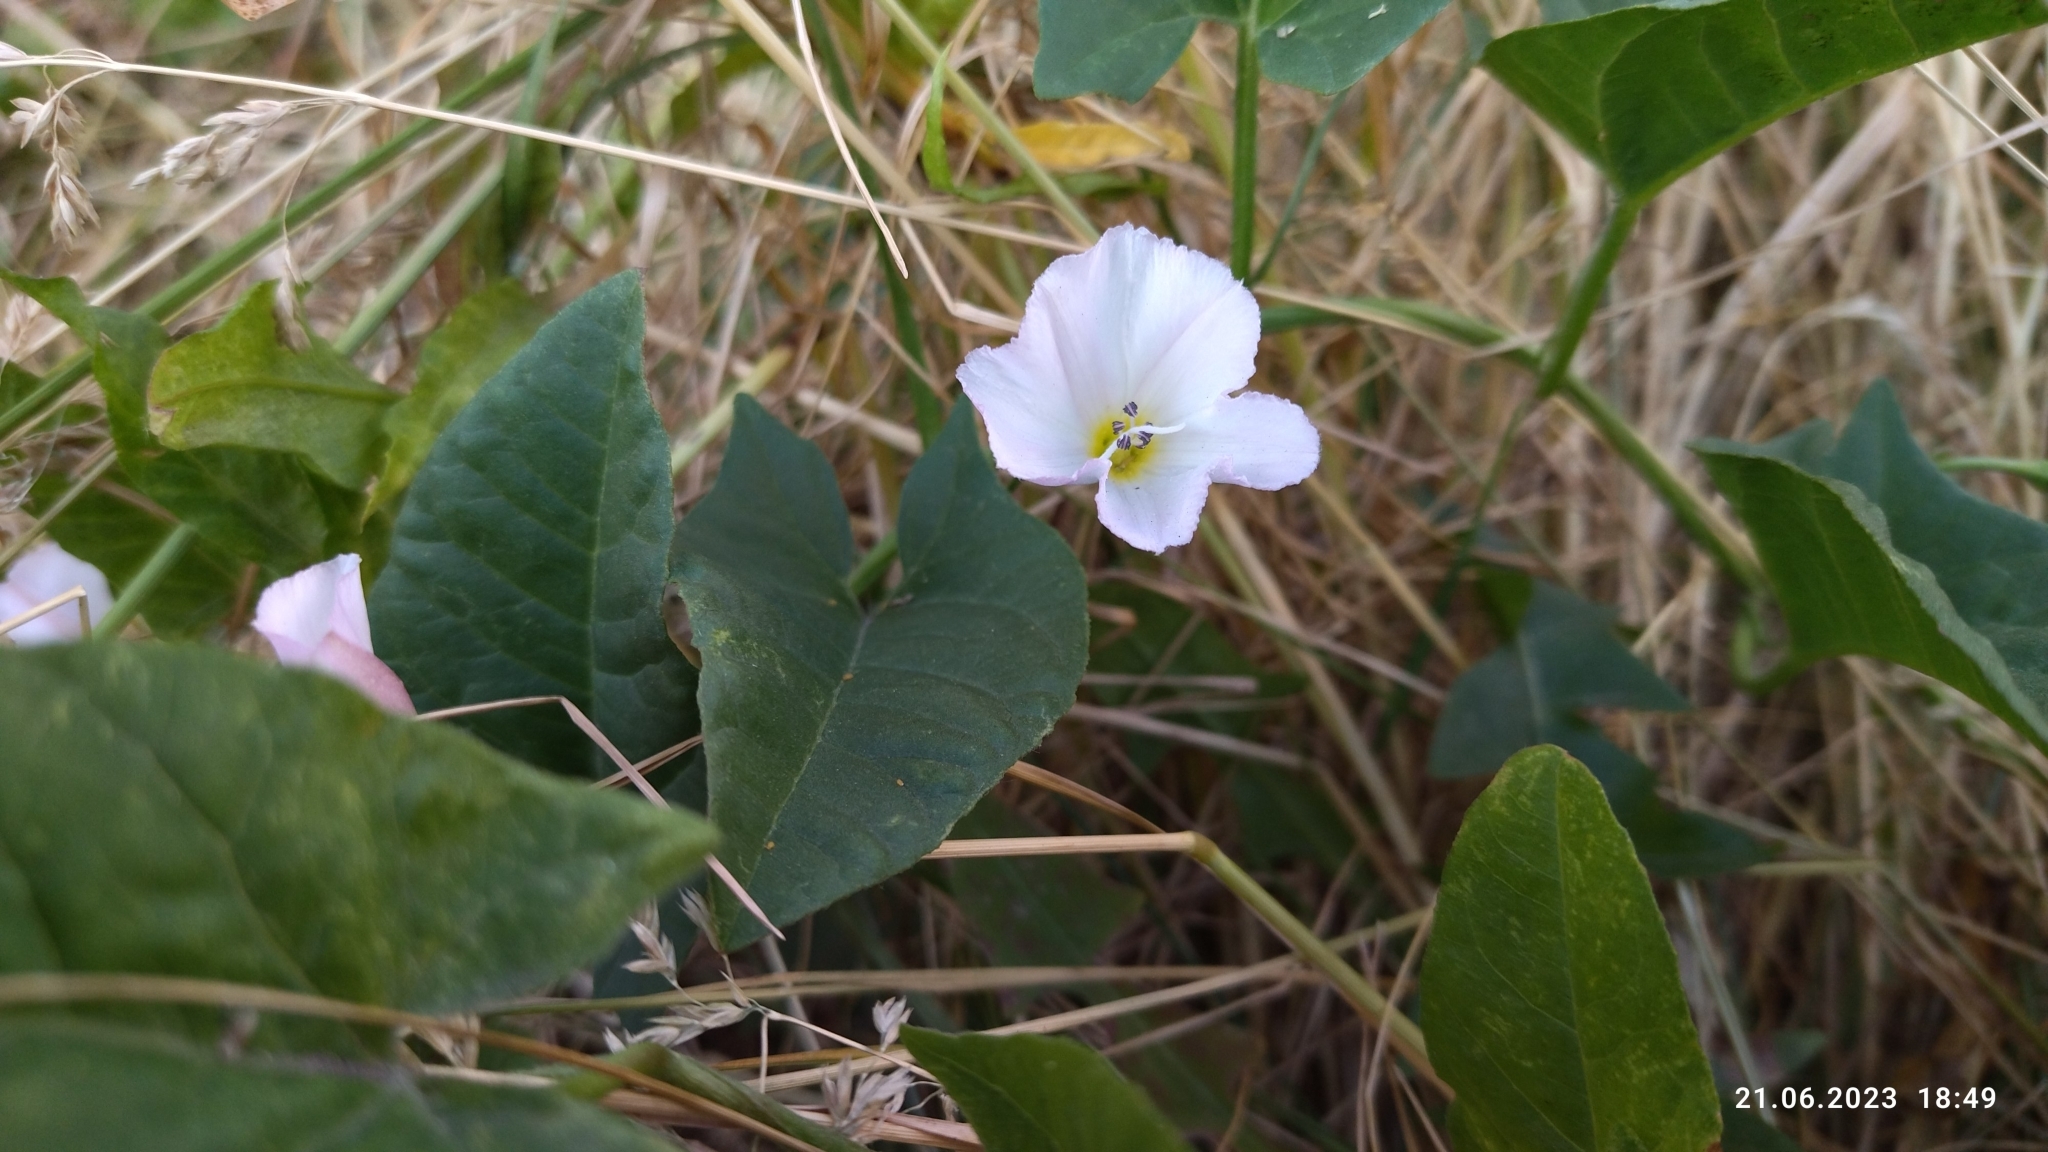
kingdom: Plantae
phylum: Tracheophyta
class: Magnoliopsida
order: Solanales
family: Convolvulaceae
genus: Convolvulus
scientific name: Convolvulus arvensis
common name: Field bindweed
